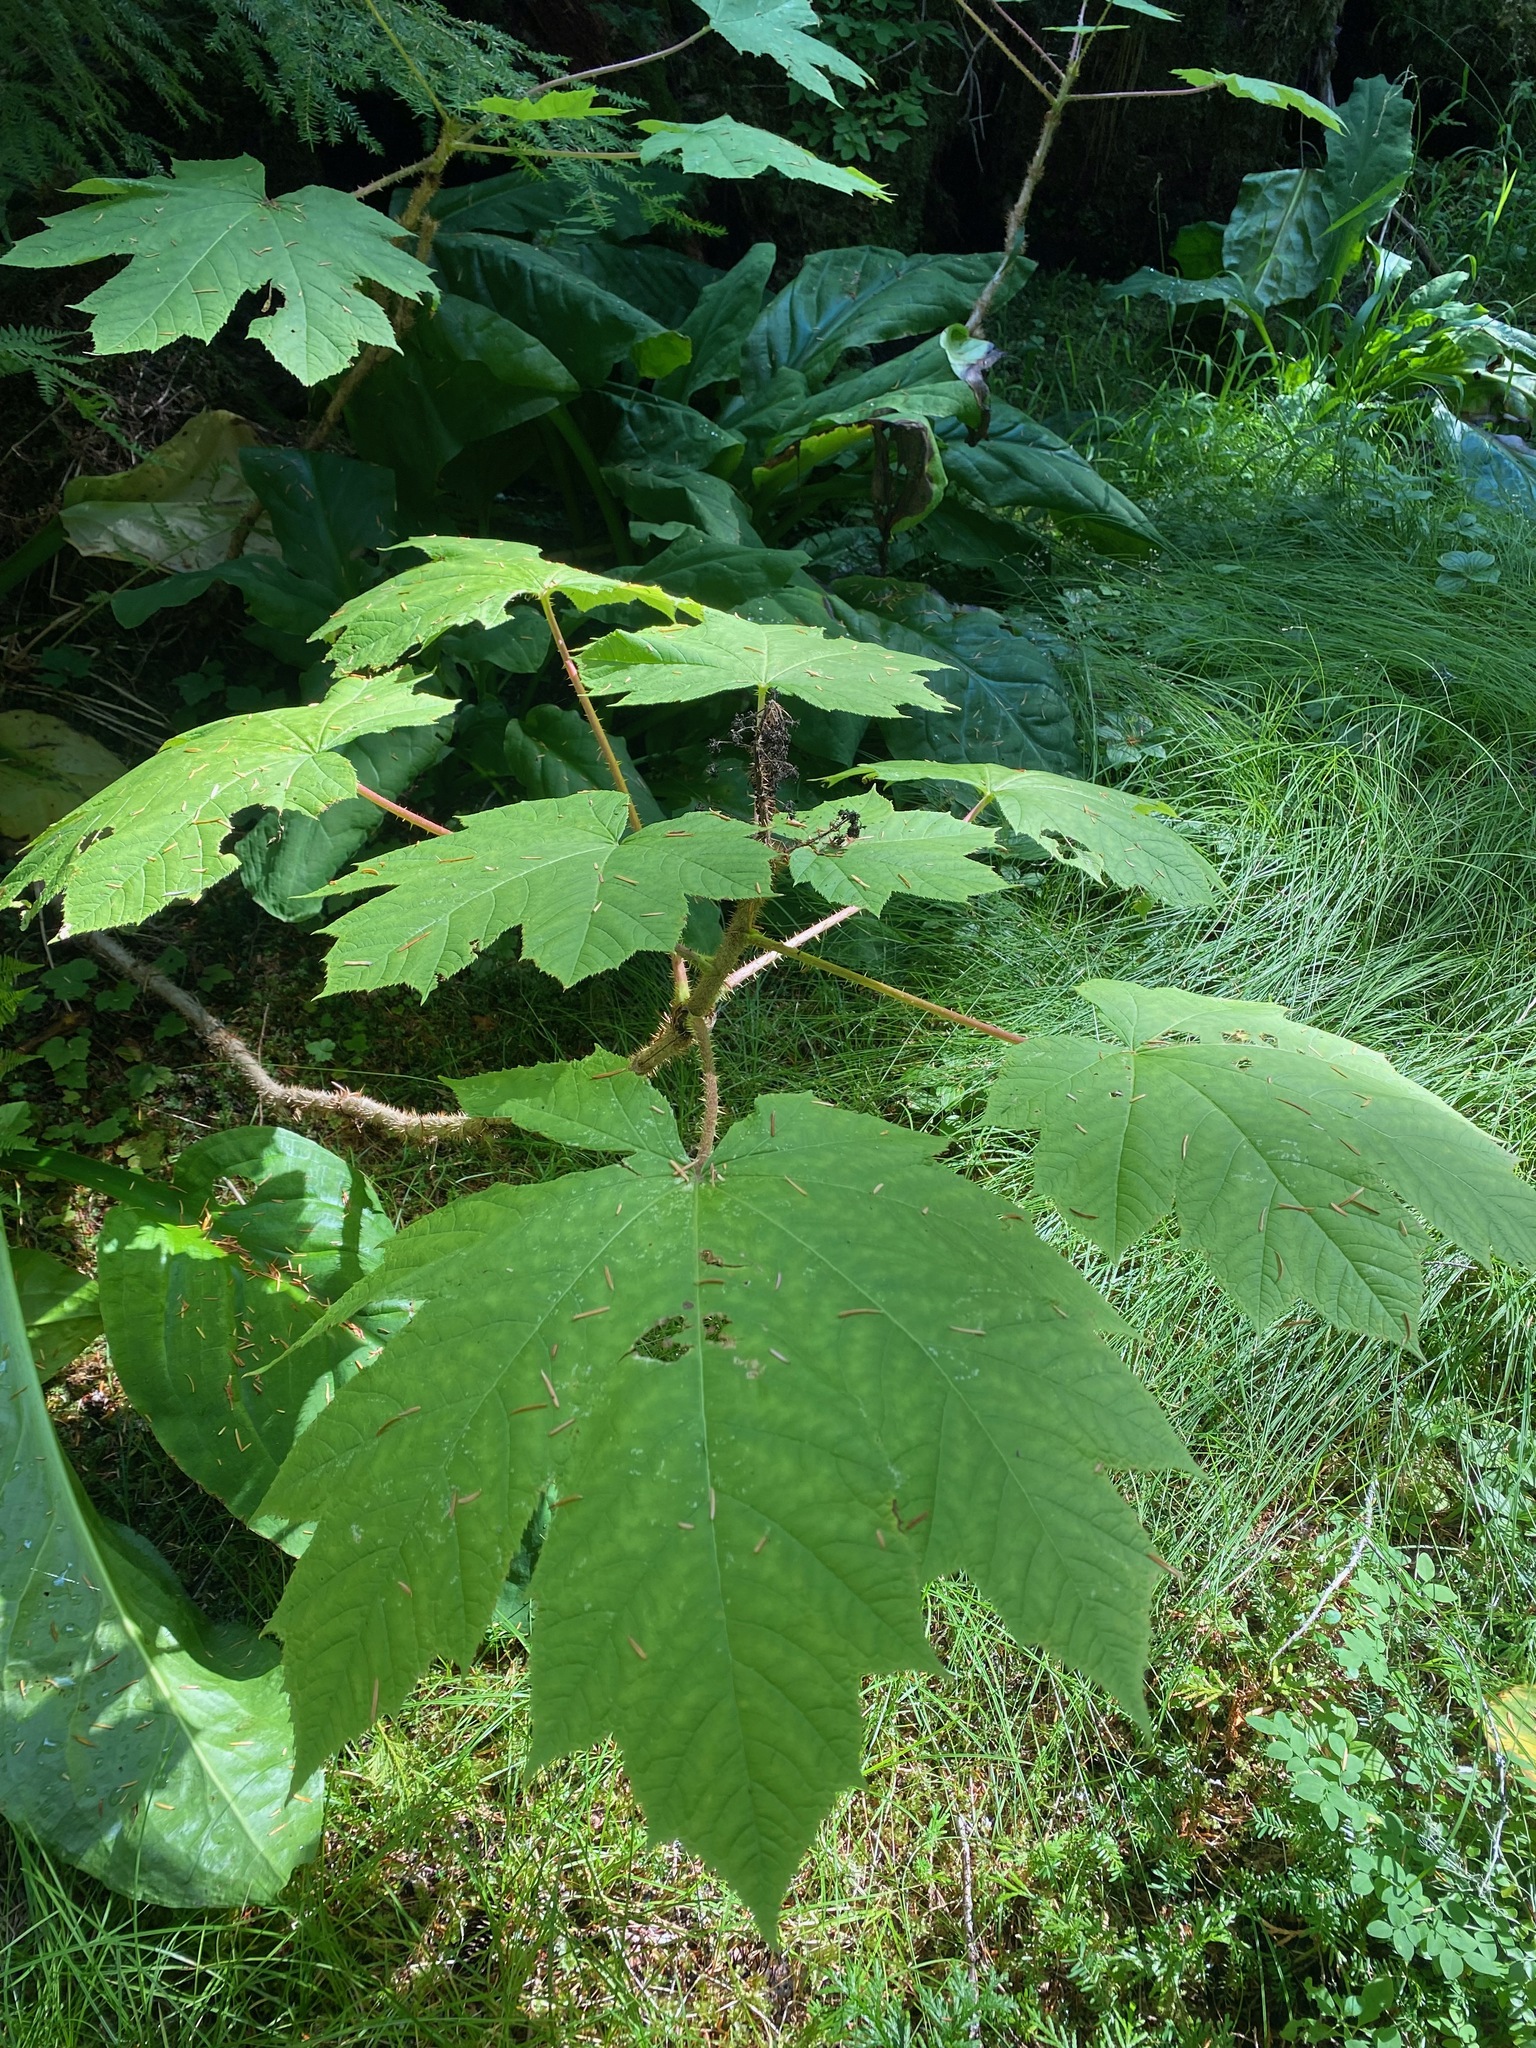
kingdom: Plantae
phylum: Tracheophyta
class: Magnoliopsida
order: Apiales
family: Araliaceae
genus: Oplopanax
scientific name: Oplopanax horridus
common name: Devil's walking-stick
